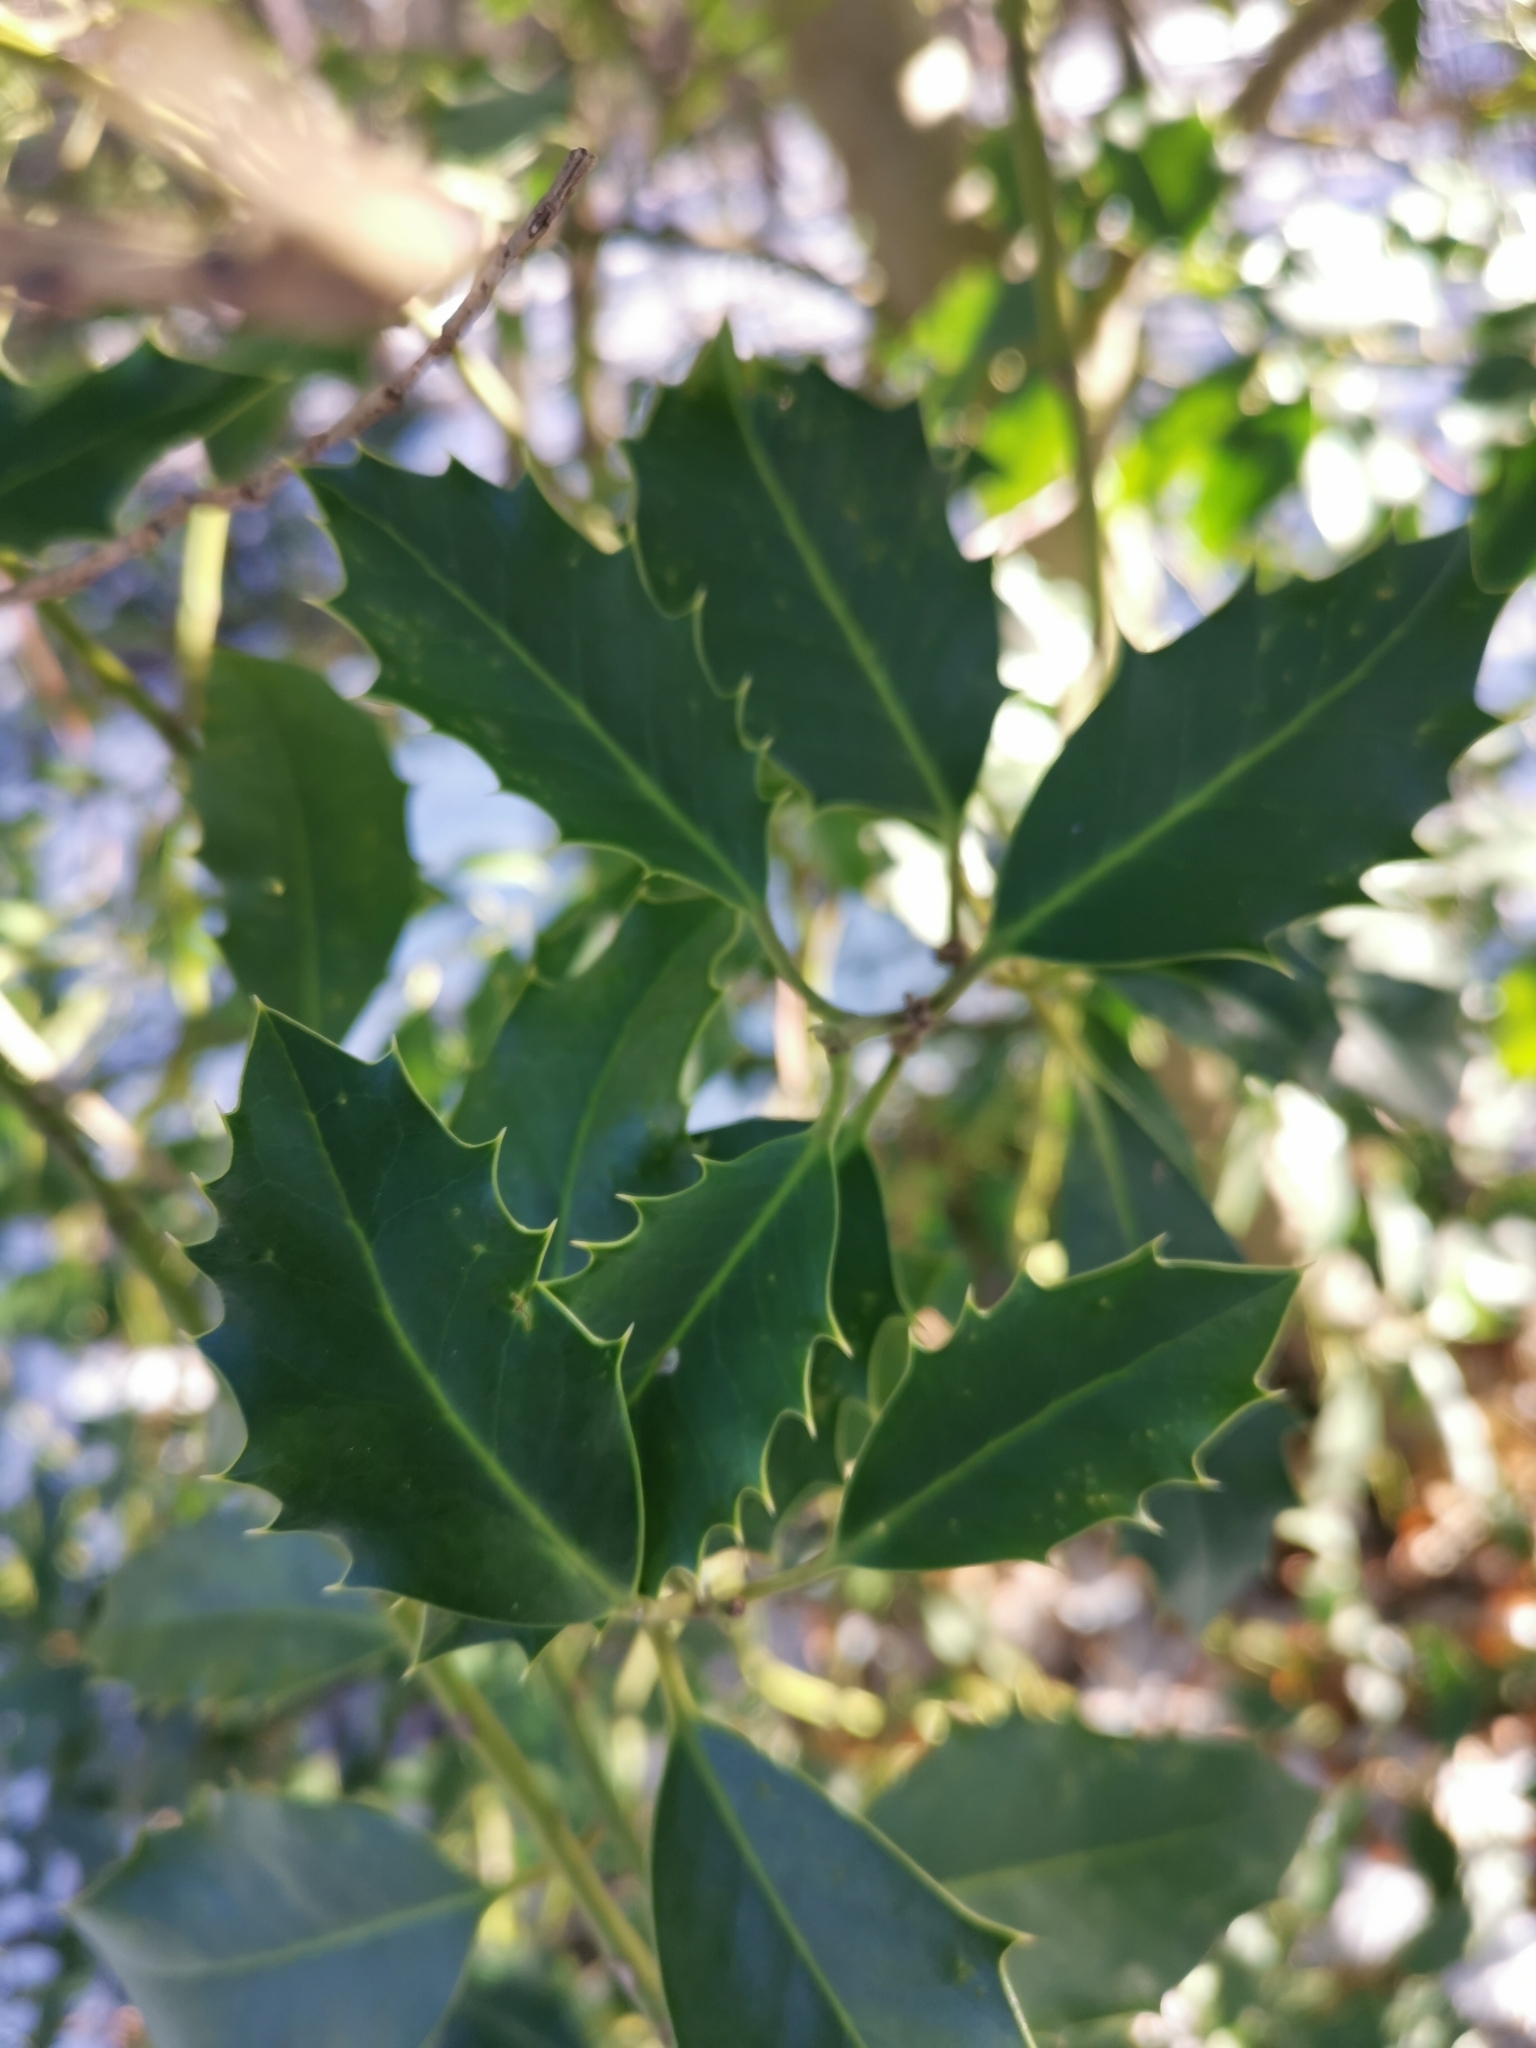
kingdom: Plantae
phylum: Tracheophyta
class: Magnoliopsida
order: Aquifoliales
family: Aquifoliaceae
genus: Ilex
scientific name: Ilex aquifolium
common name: English holly
